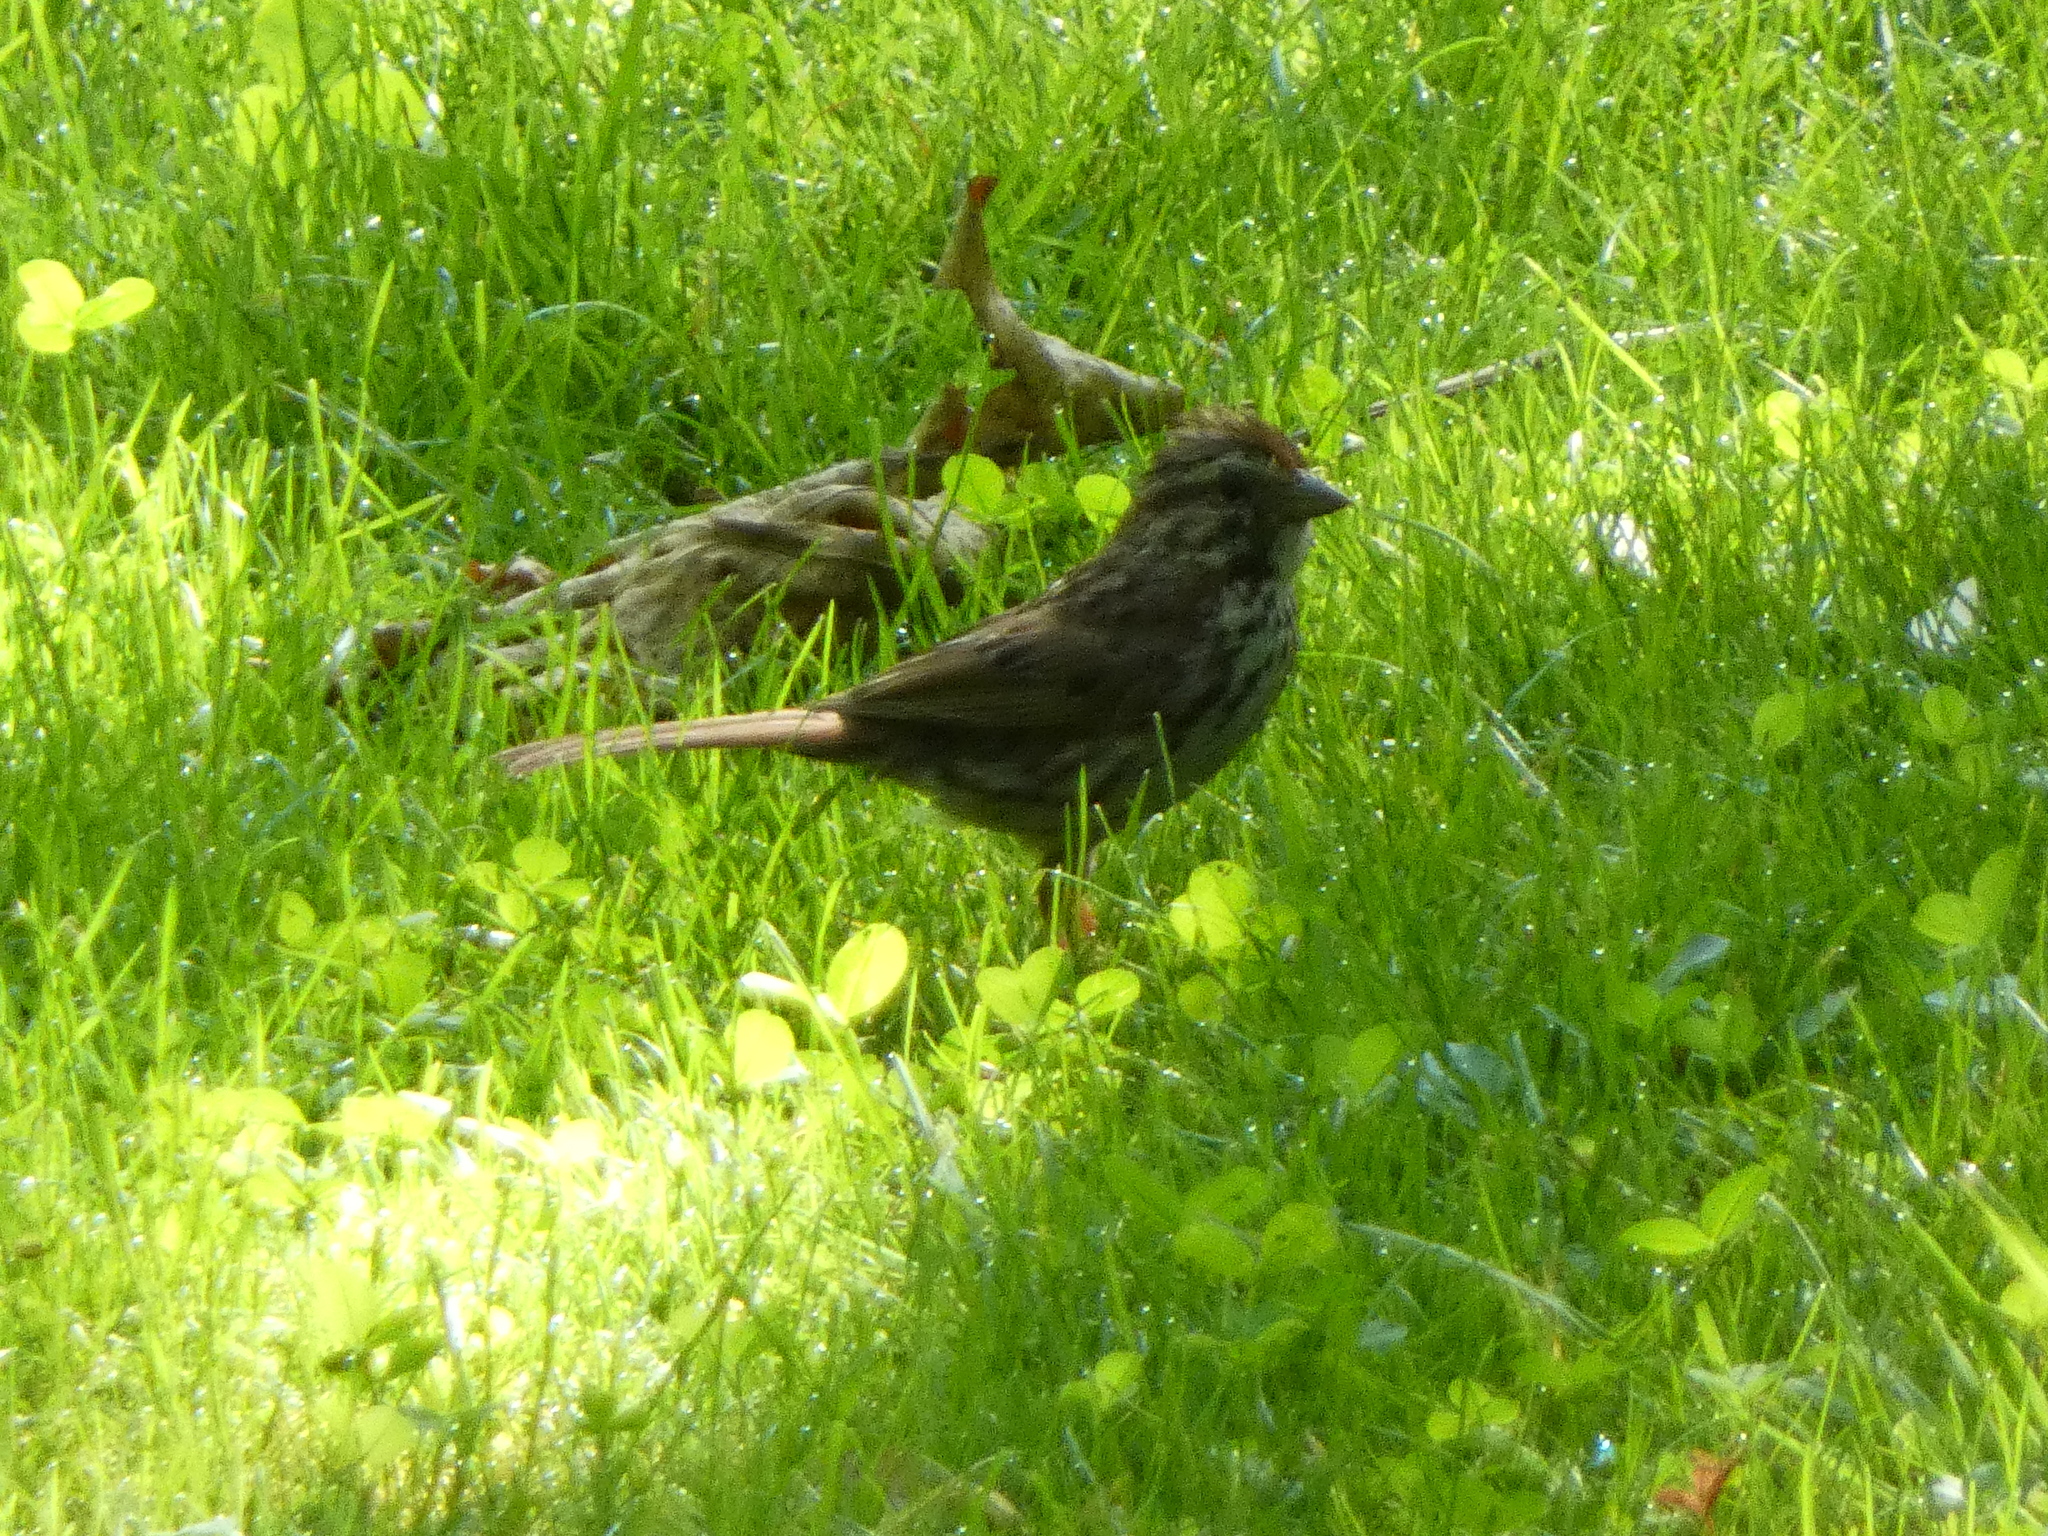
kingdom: Animalia
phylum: Chordata
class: Aves
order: Passeriformes
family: Passerellidae
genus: Melospiza
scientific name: Melospiza melodia
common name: Song sparrow
